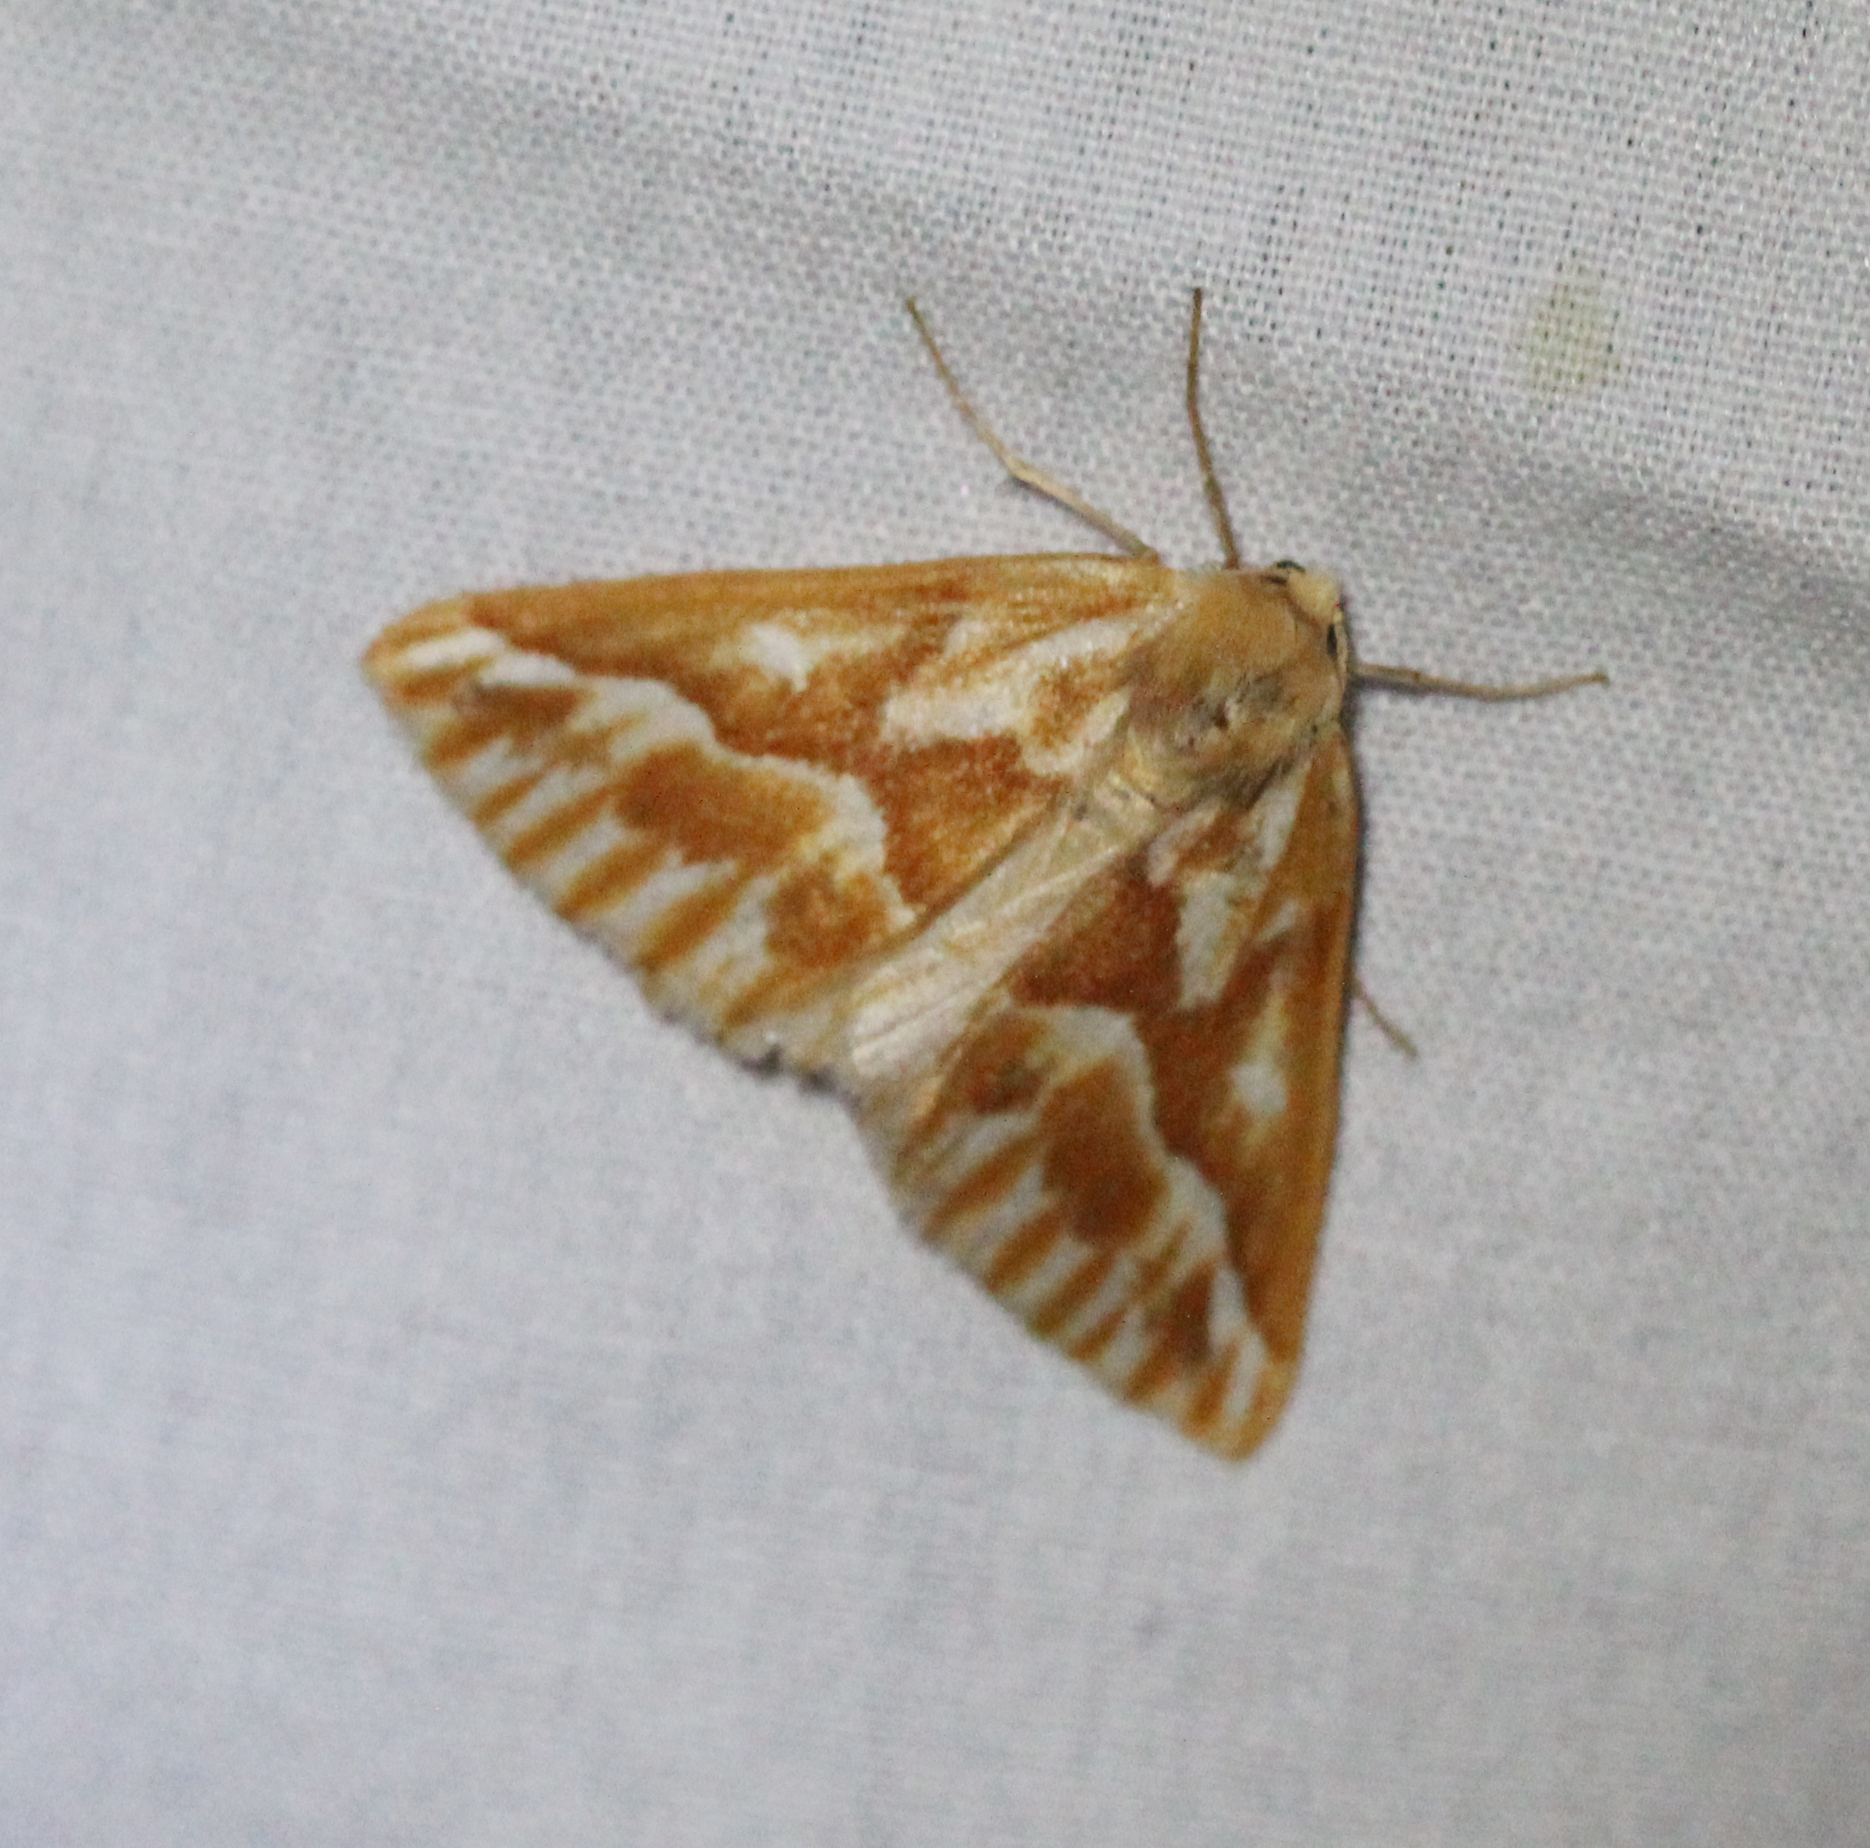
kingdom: Animalia
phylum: Arthropoda
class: Insecta
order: Lepidoptera
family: Geometridae
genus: Caripeta
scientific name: Caripeta piniata
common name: Northern pine looper moth
